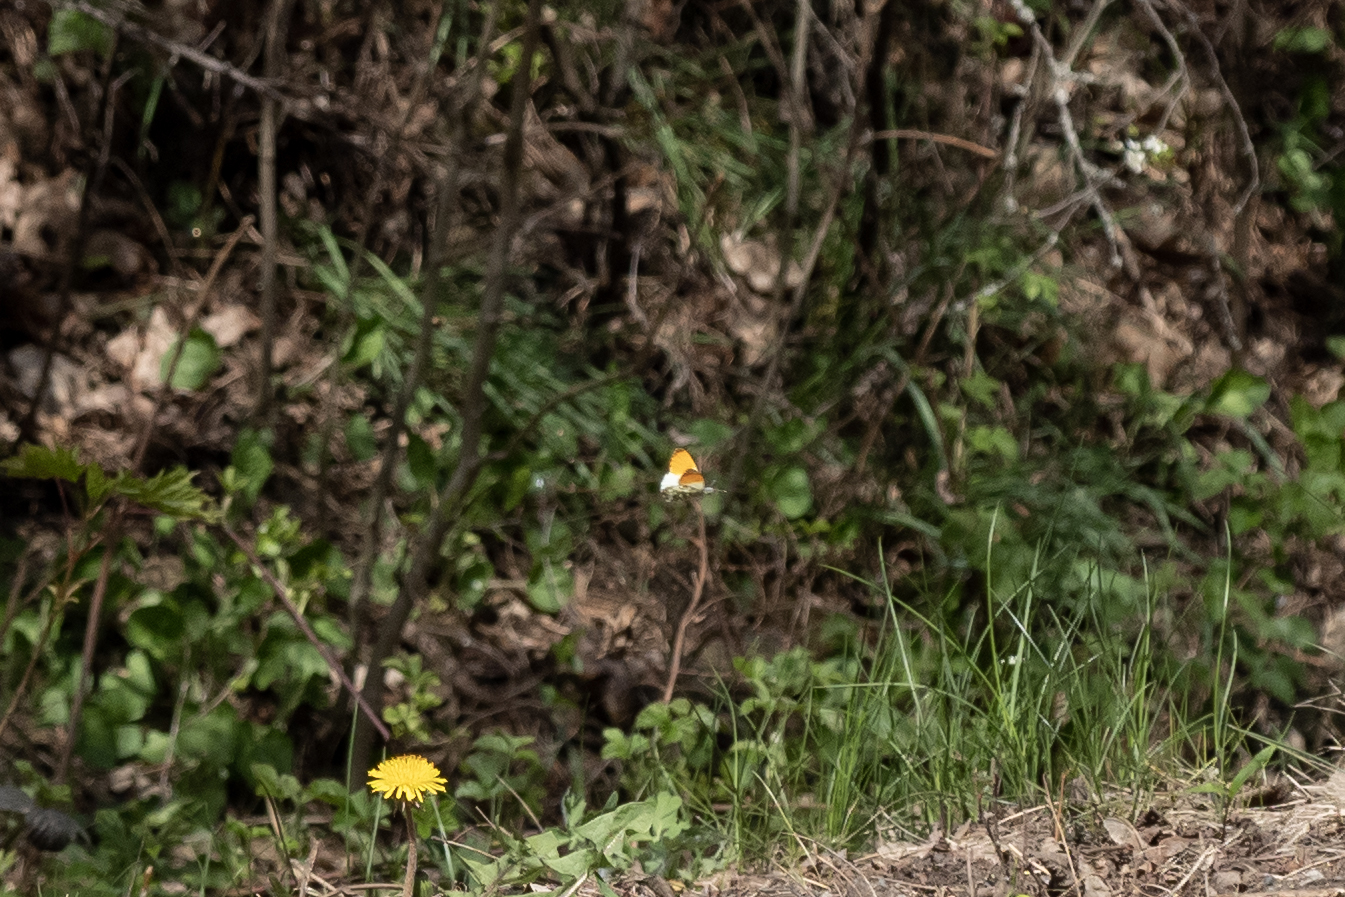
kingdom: Animalia
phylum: Arthropoda
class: Insecta
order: Lepidoptera
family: Pieridae
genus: Anthocharis
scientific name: Anthocharis cardamines
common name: Orange-tip
